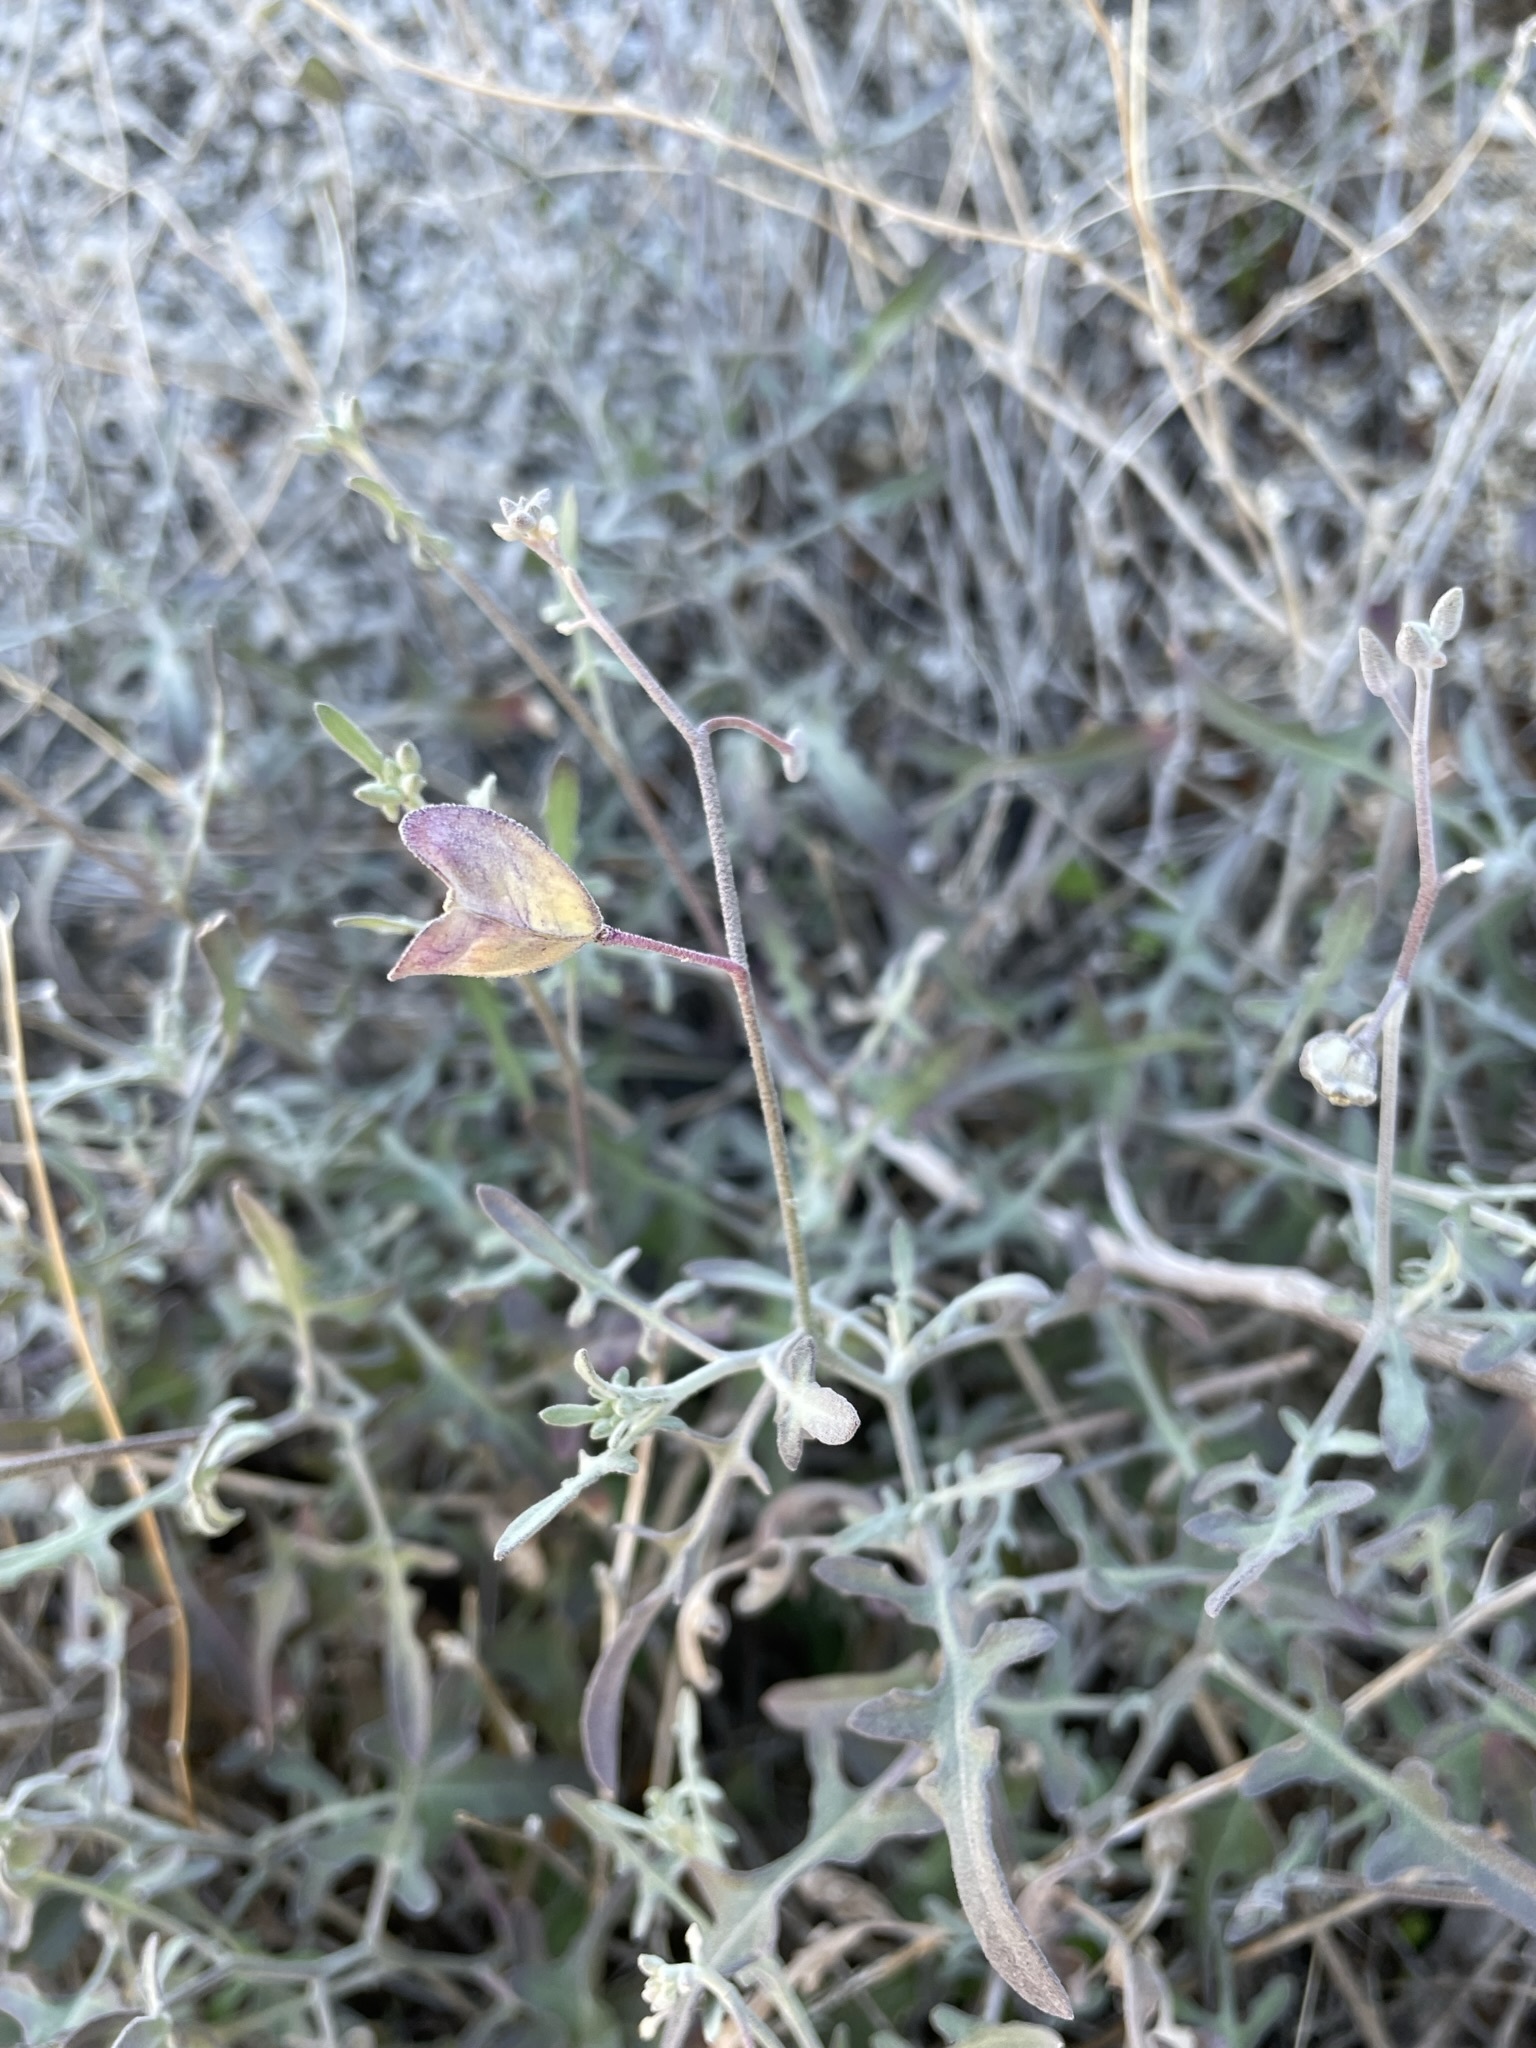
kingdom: Plantae
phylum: Tracheophyta
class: Magnoliopsida
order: Brassicales
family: Brassicaceae
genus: Lyrocarpa
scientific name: Lyrocarpa coulteri
